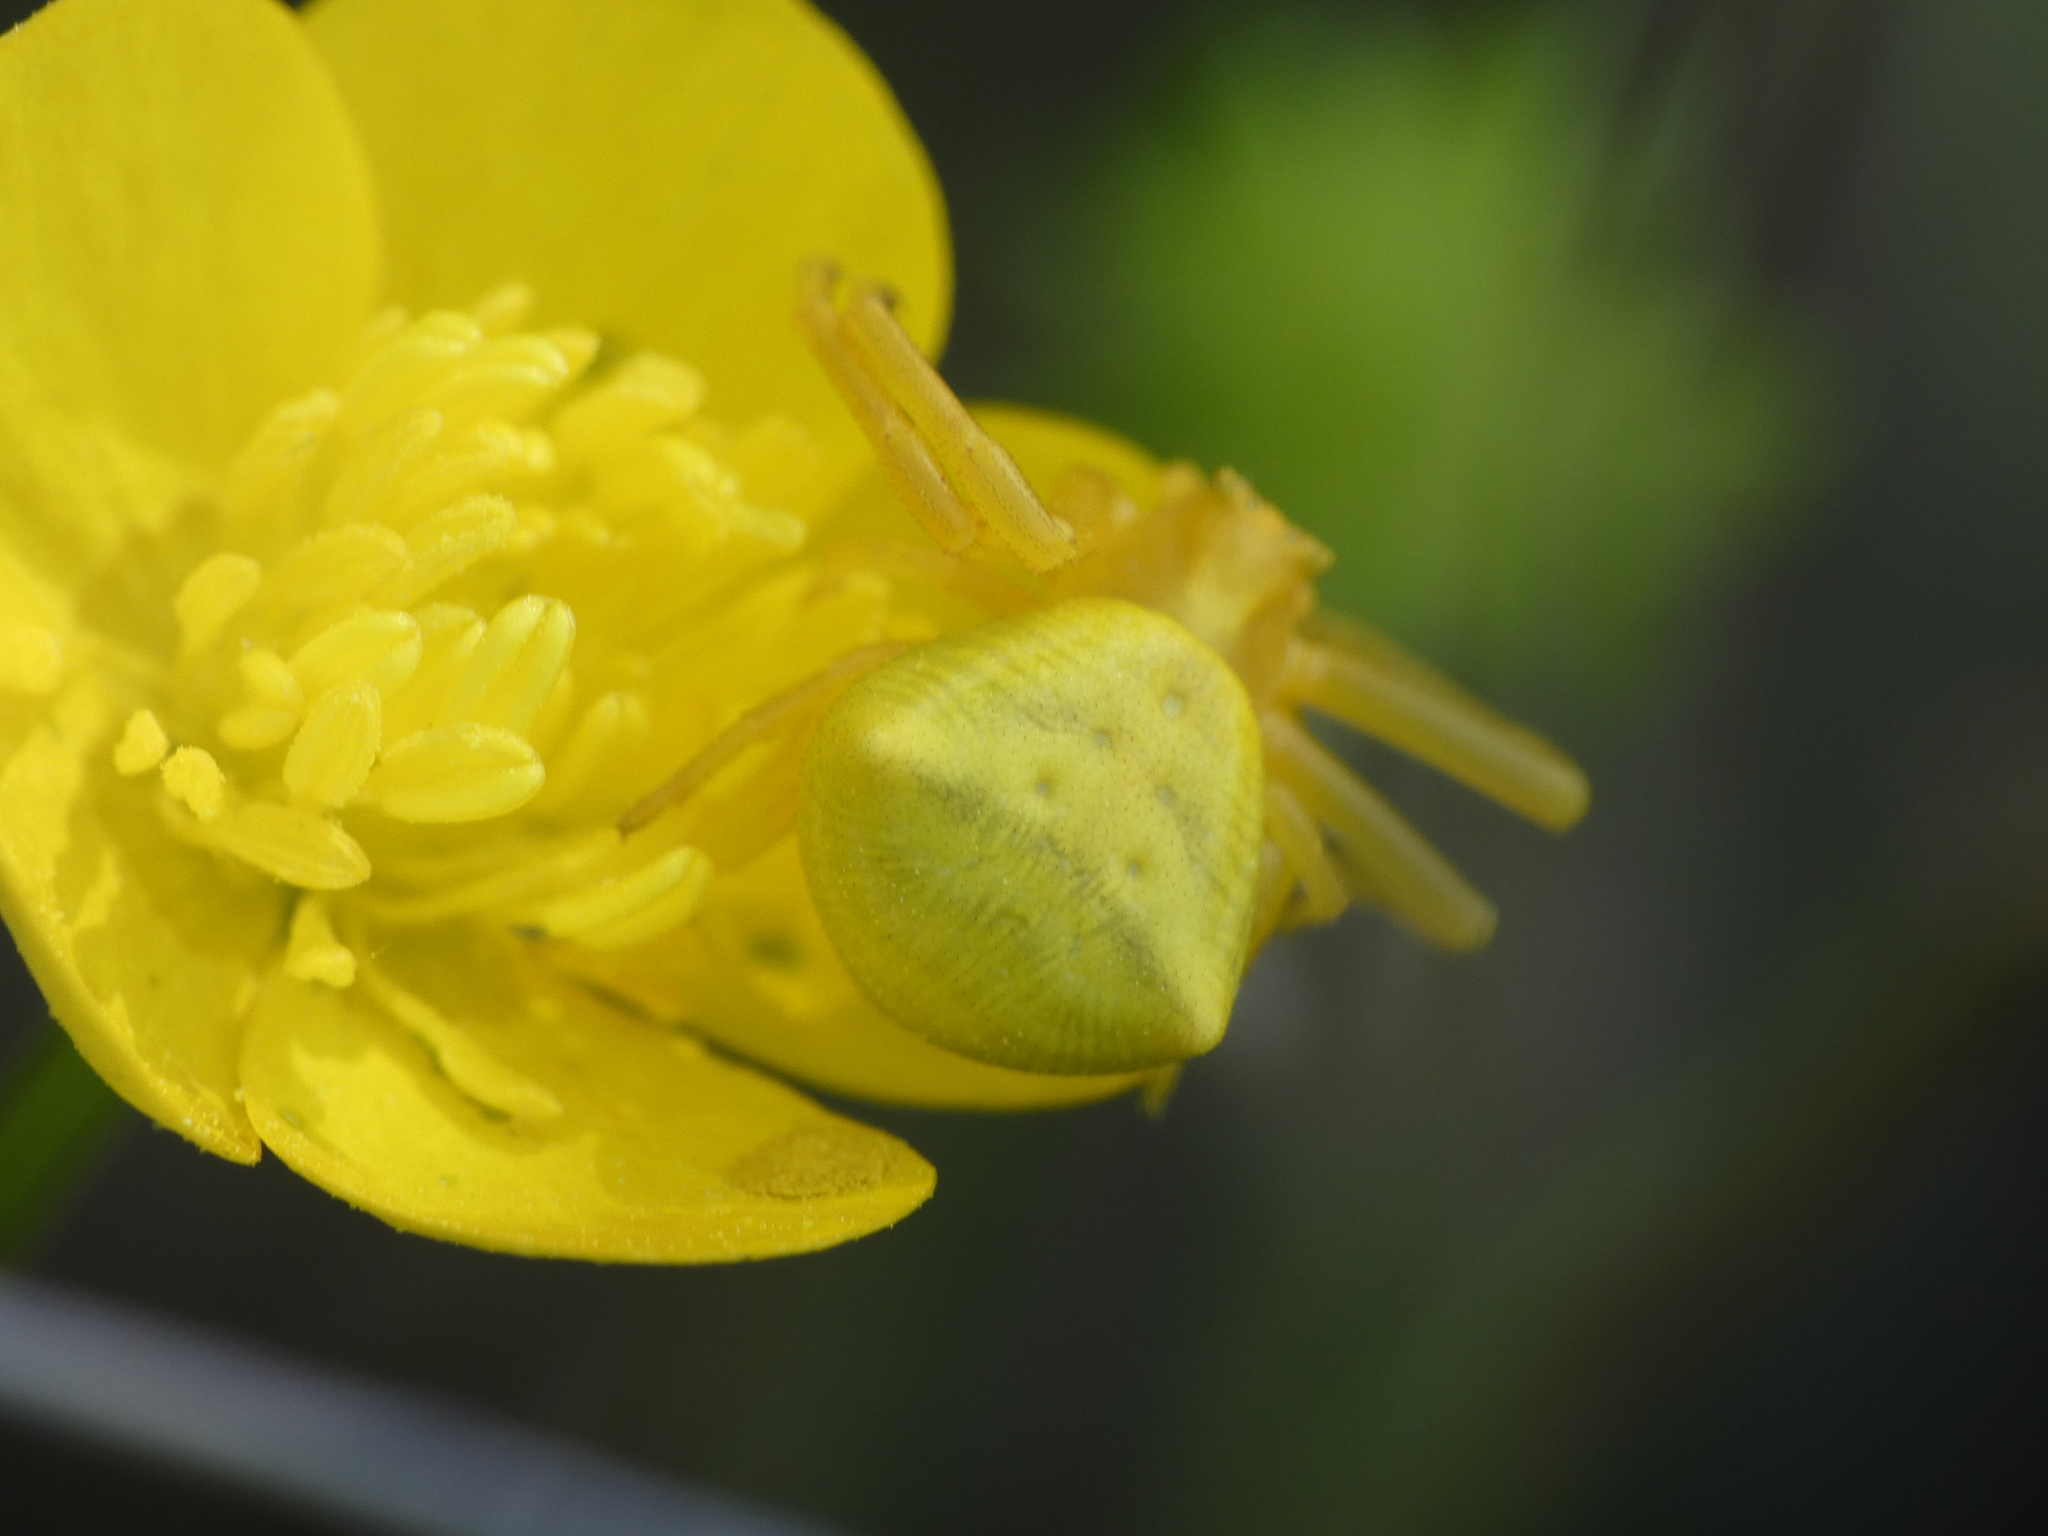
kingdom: Animalia
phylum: Arthropoda
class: Arachnida
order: Araneae
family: Thomisidae
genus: Thomisus
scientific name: Thomisus onustus
